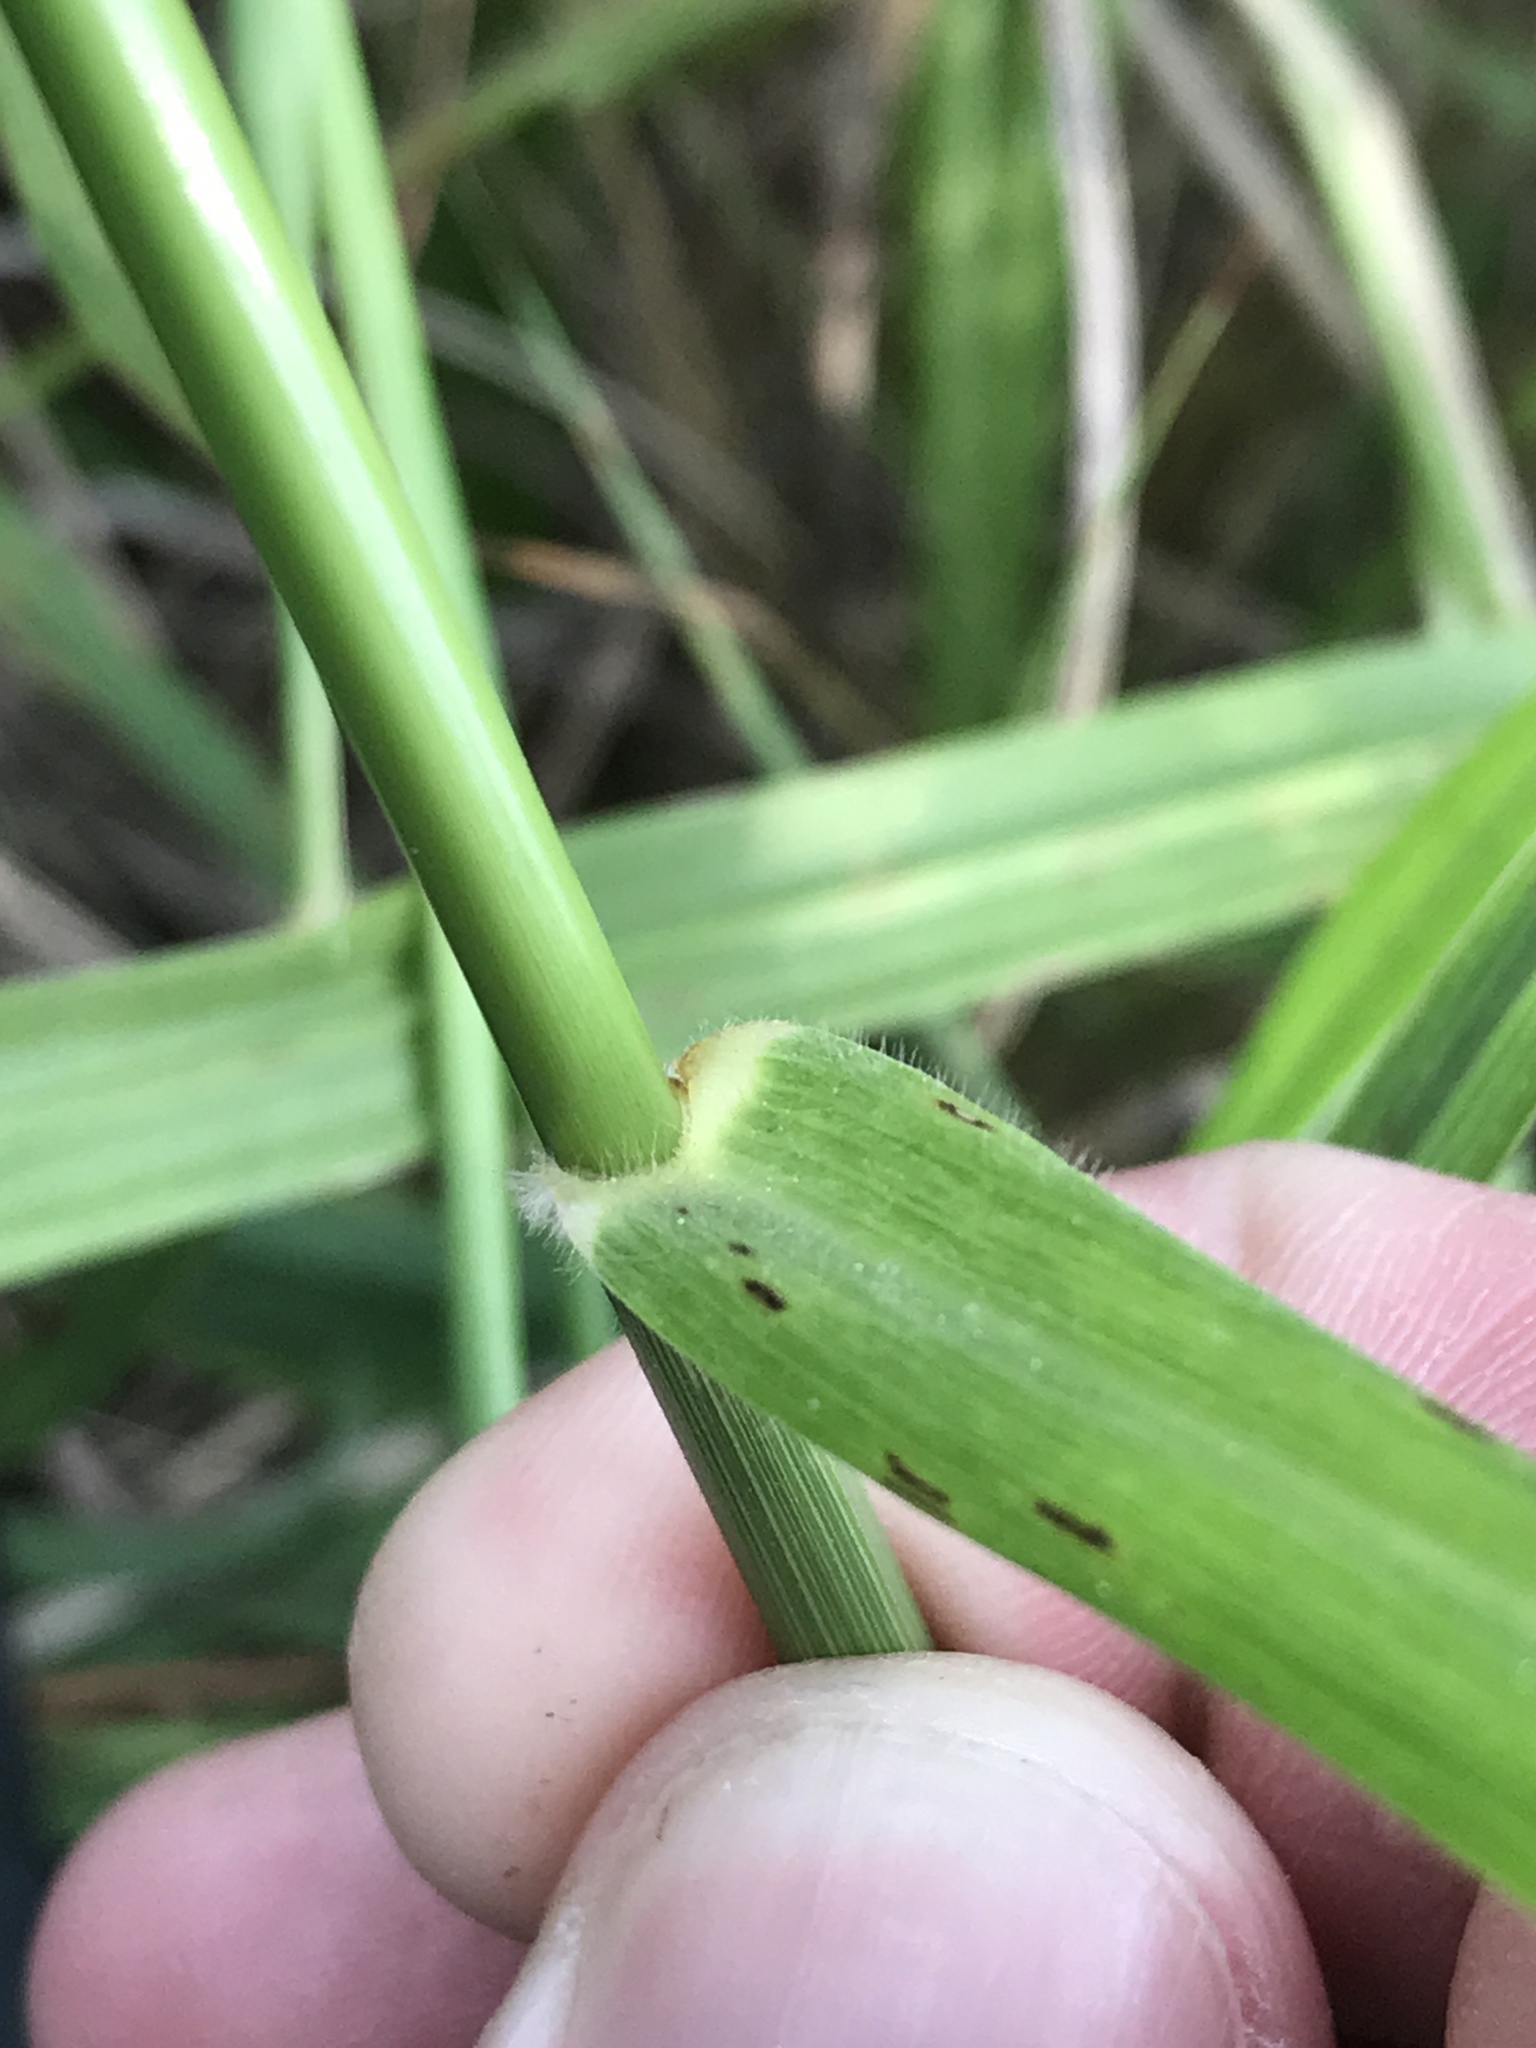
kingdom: Plantae
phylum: Tracheophyta
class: Liliopsida
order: Poales
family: Poaceae
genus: Tridens
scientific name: Tridens flavus
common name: Purpletop
